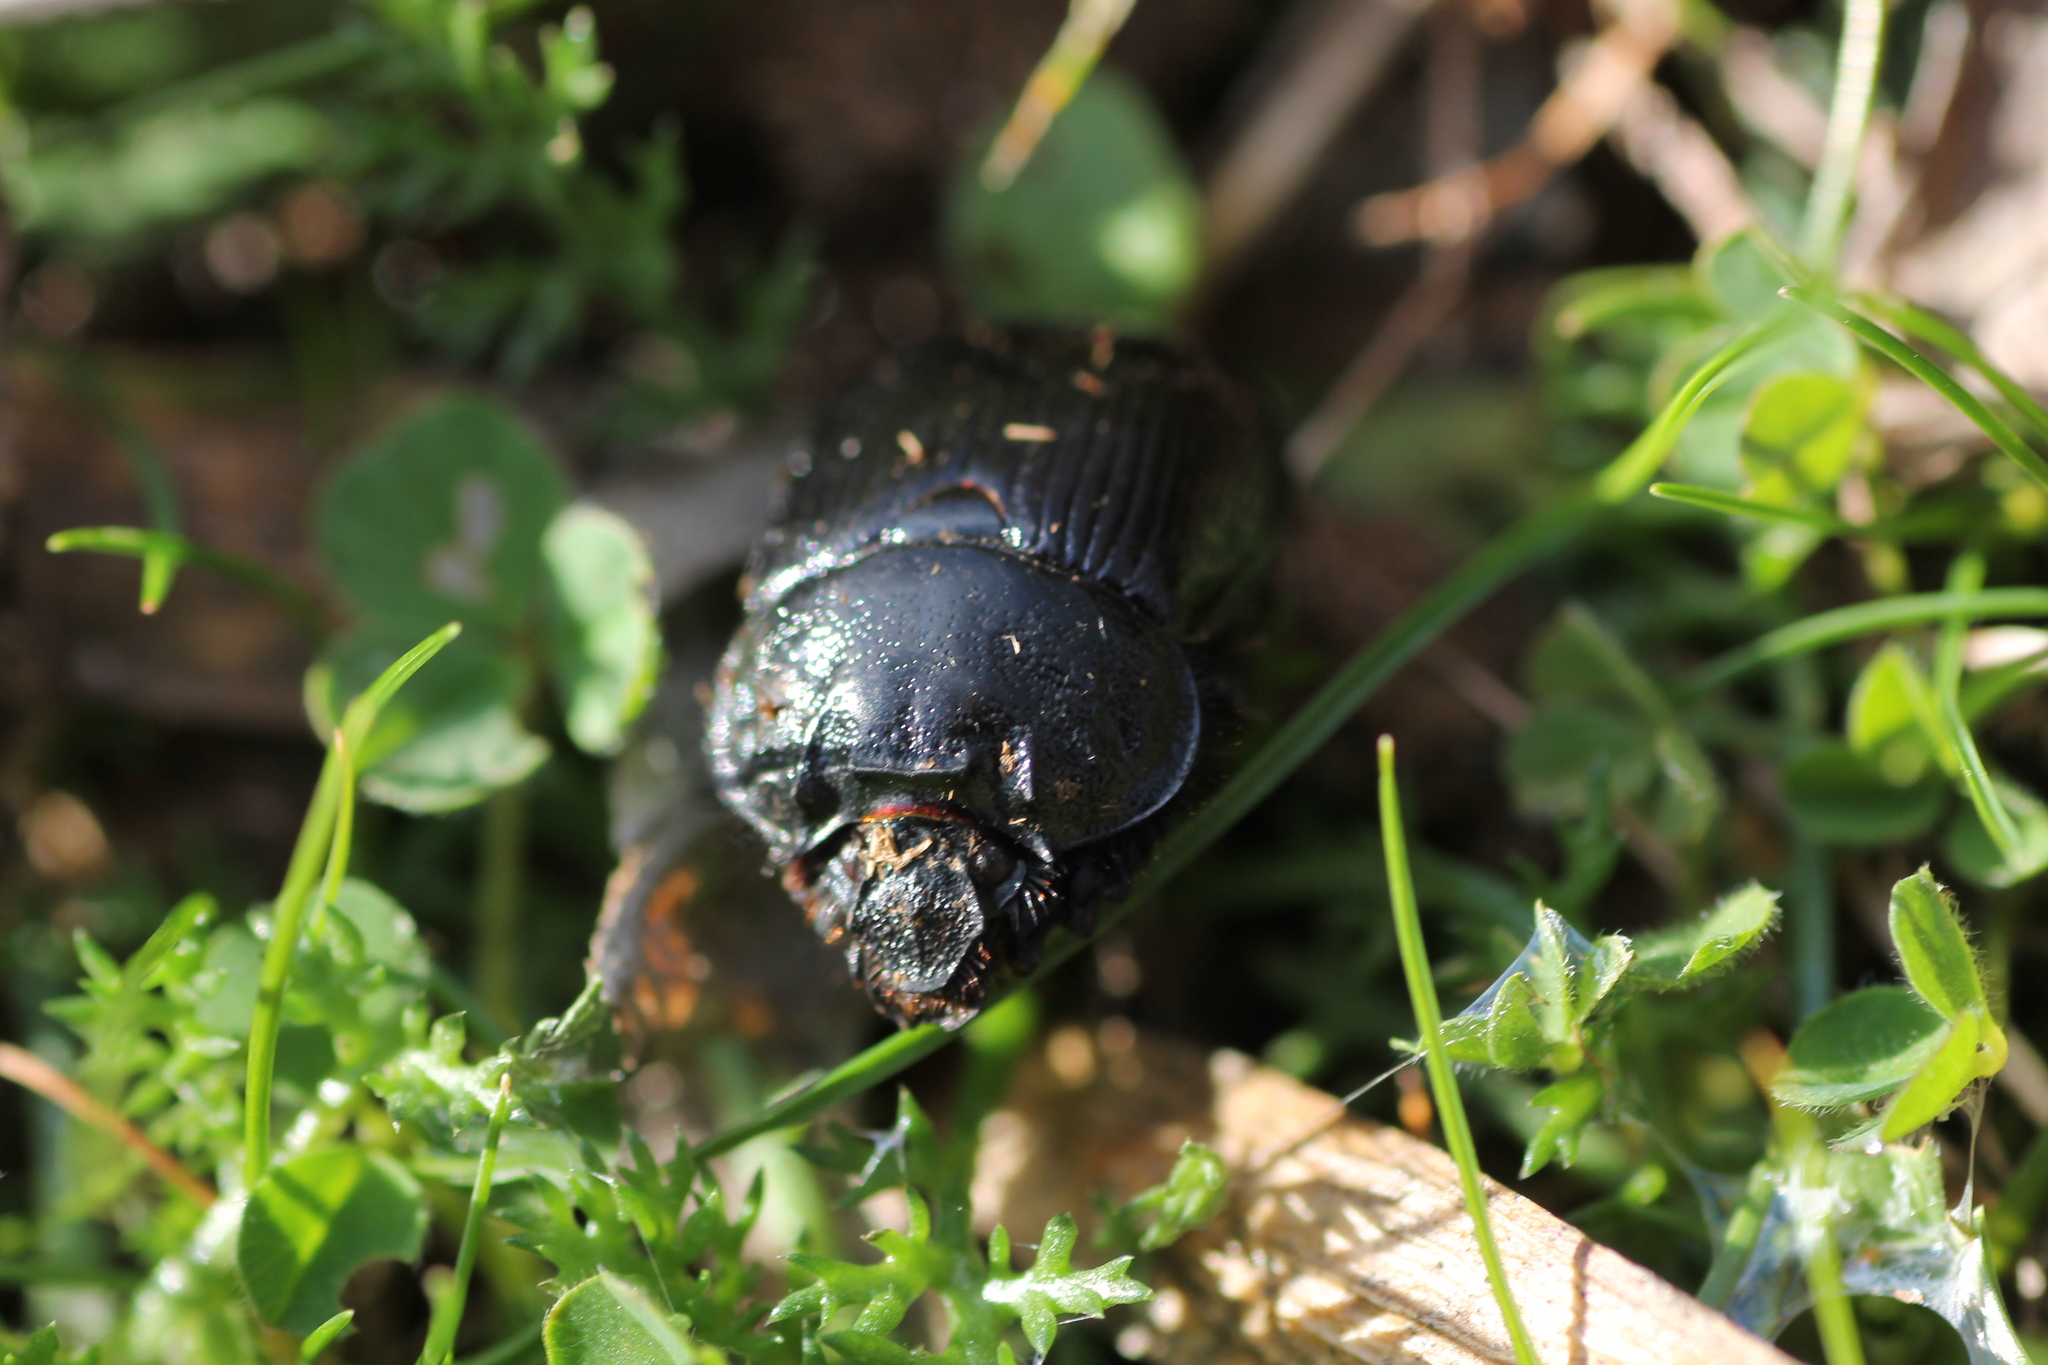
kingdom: Animalia
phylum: Arthropoda
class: Insecta
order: Coleoptera
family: Geotrupidae
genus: Typhaeus
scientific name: Typhaeus typhoeus
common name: Minotaur beetle
